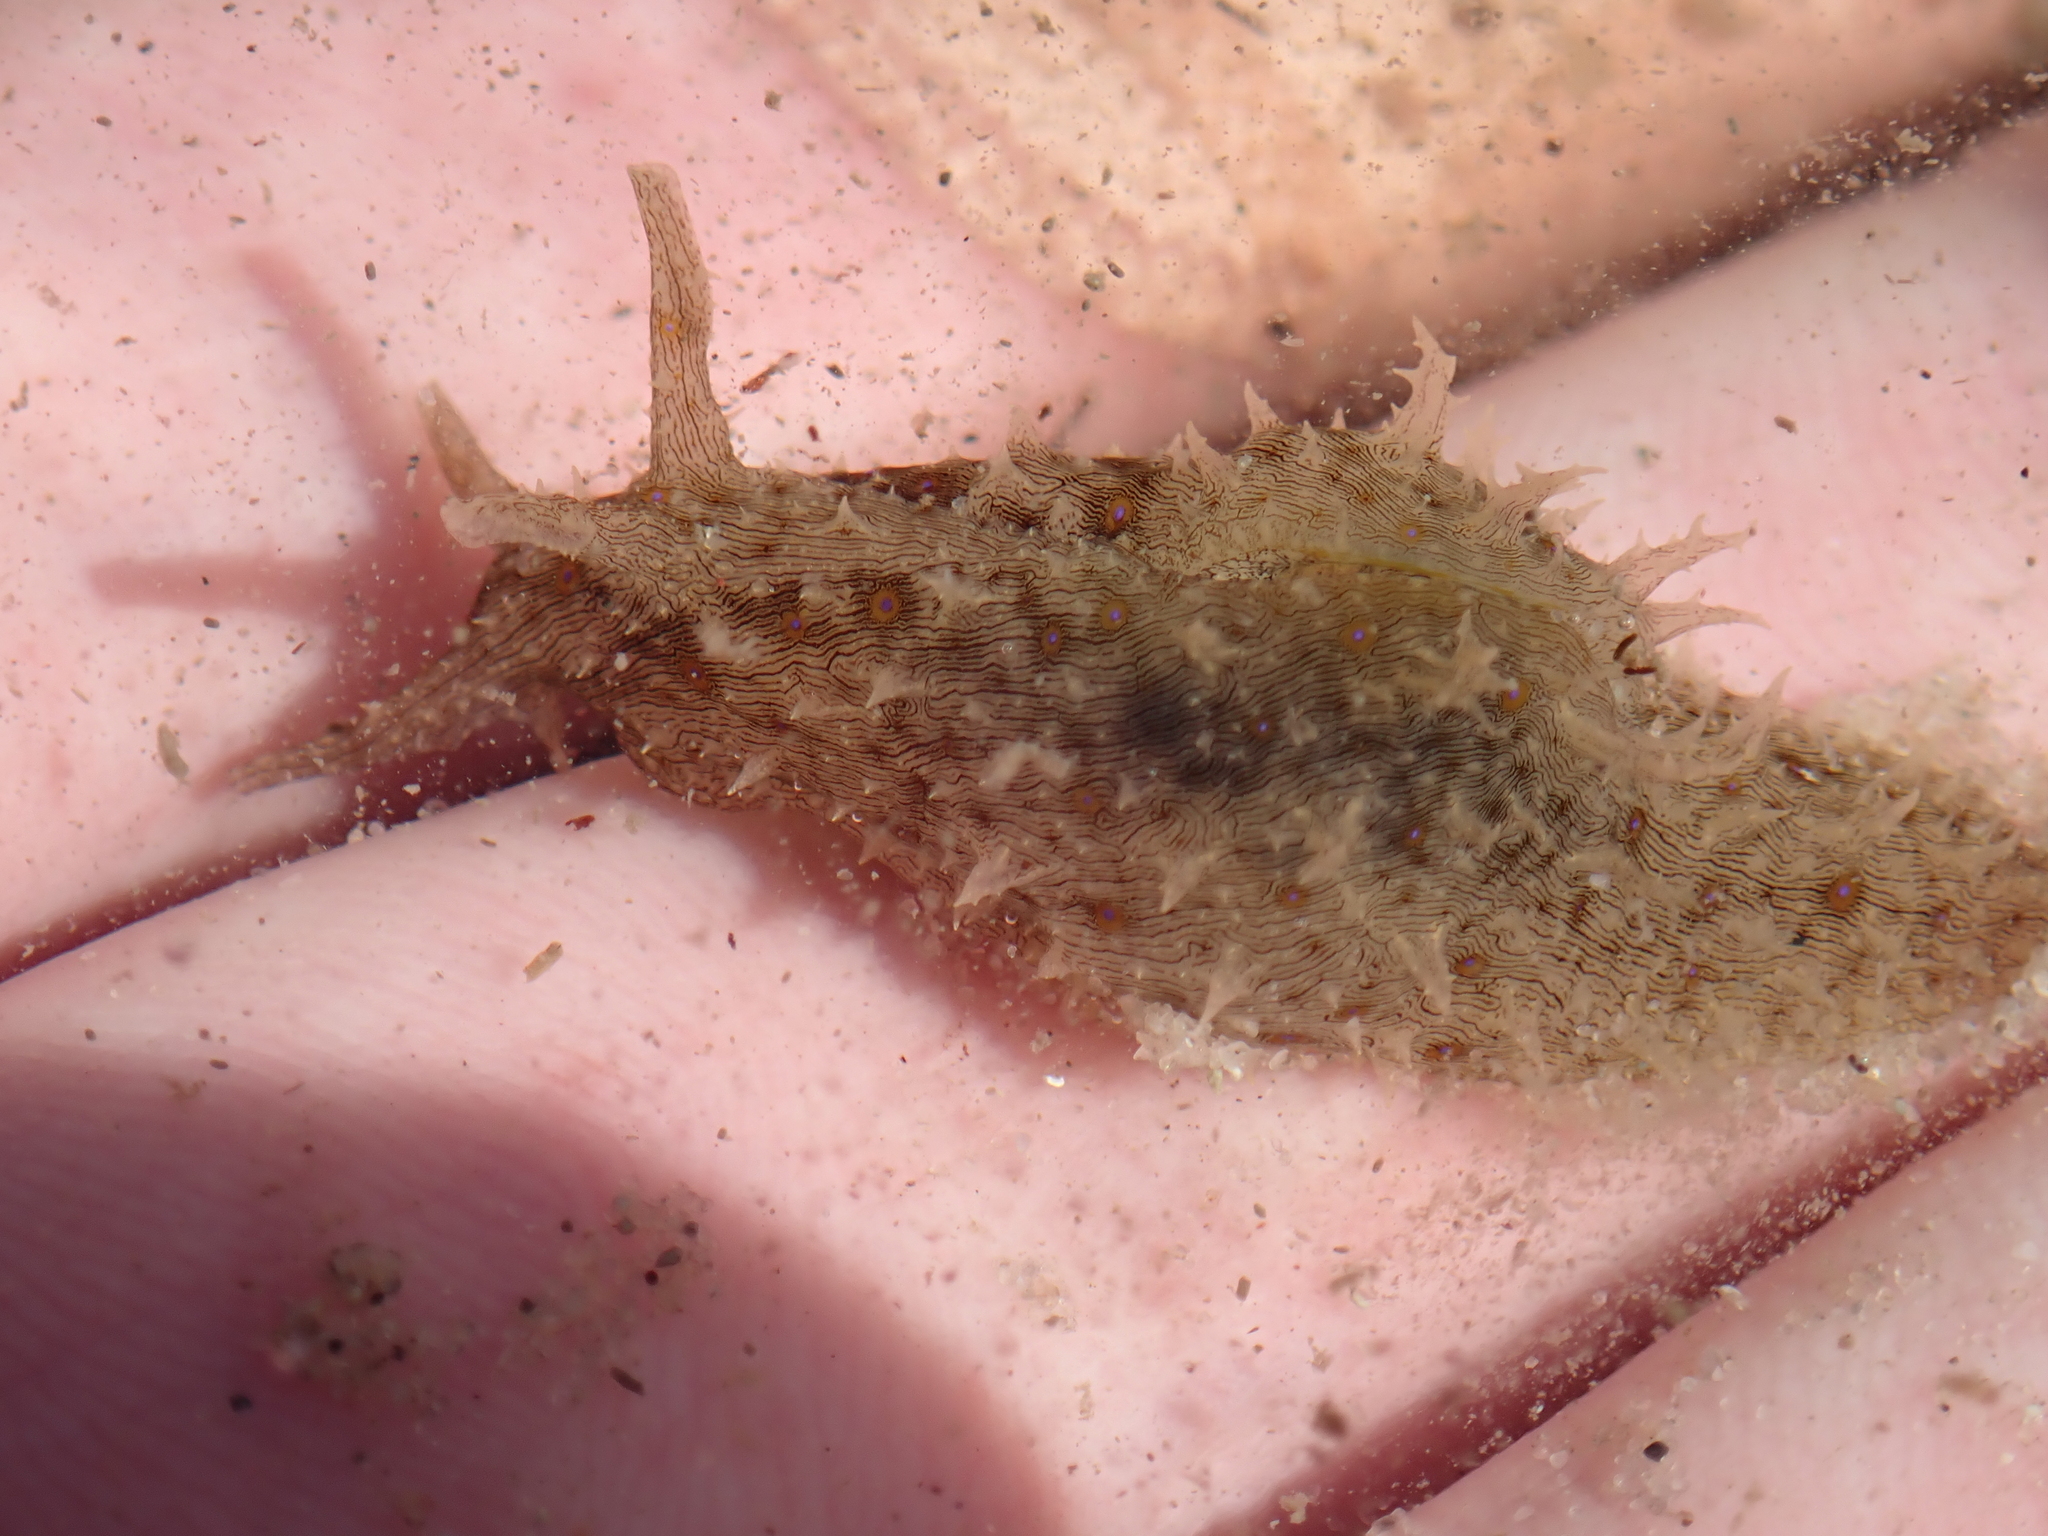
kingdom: Animalia
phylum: Mollusca
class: Gastropoda
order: Aplysiida
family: Aplysiidae
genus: Stylocheilus
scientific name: Stylocheilus striatus
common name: Striated seahare
